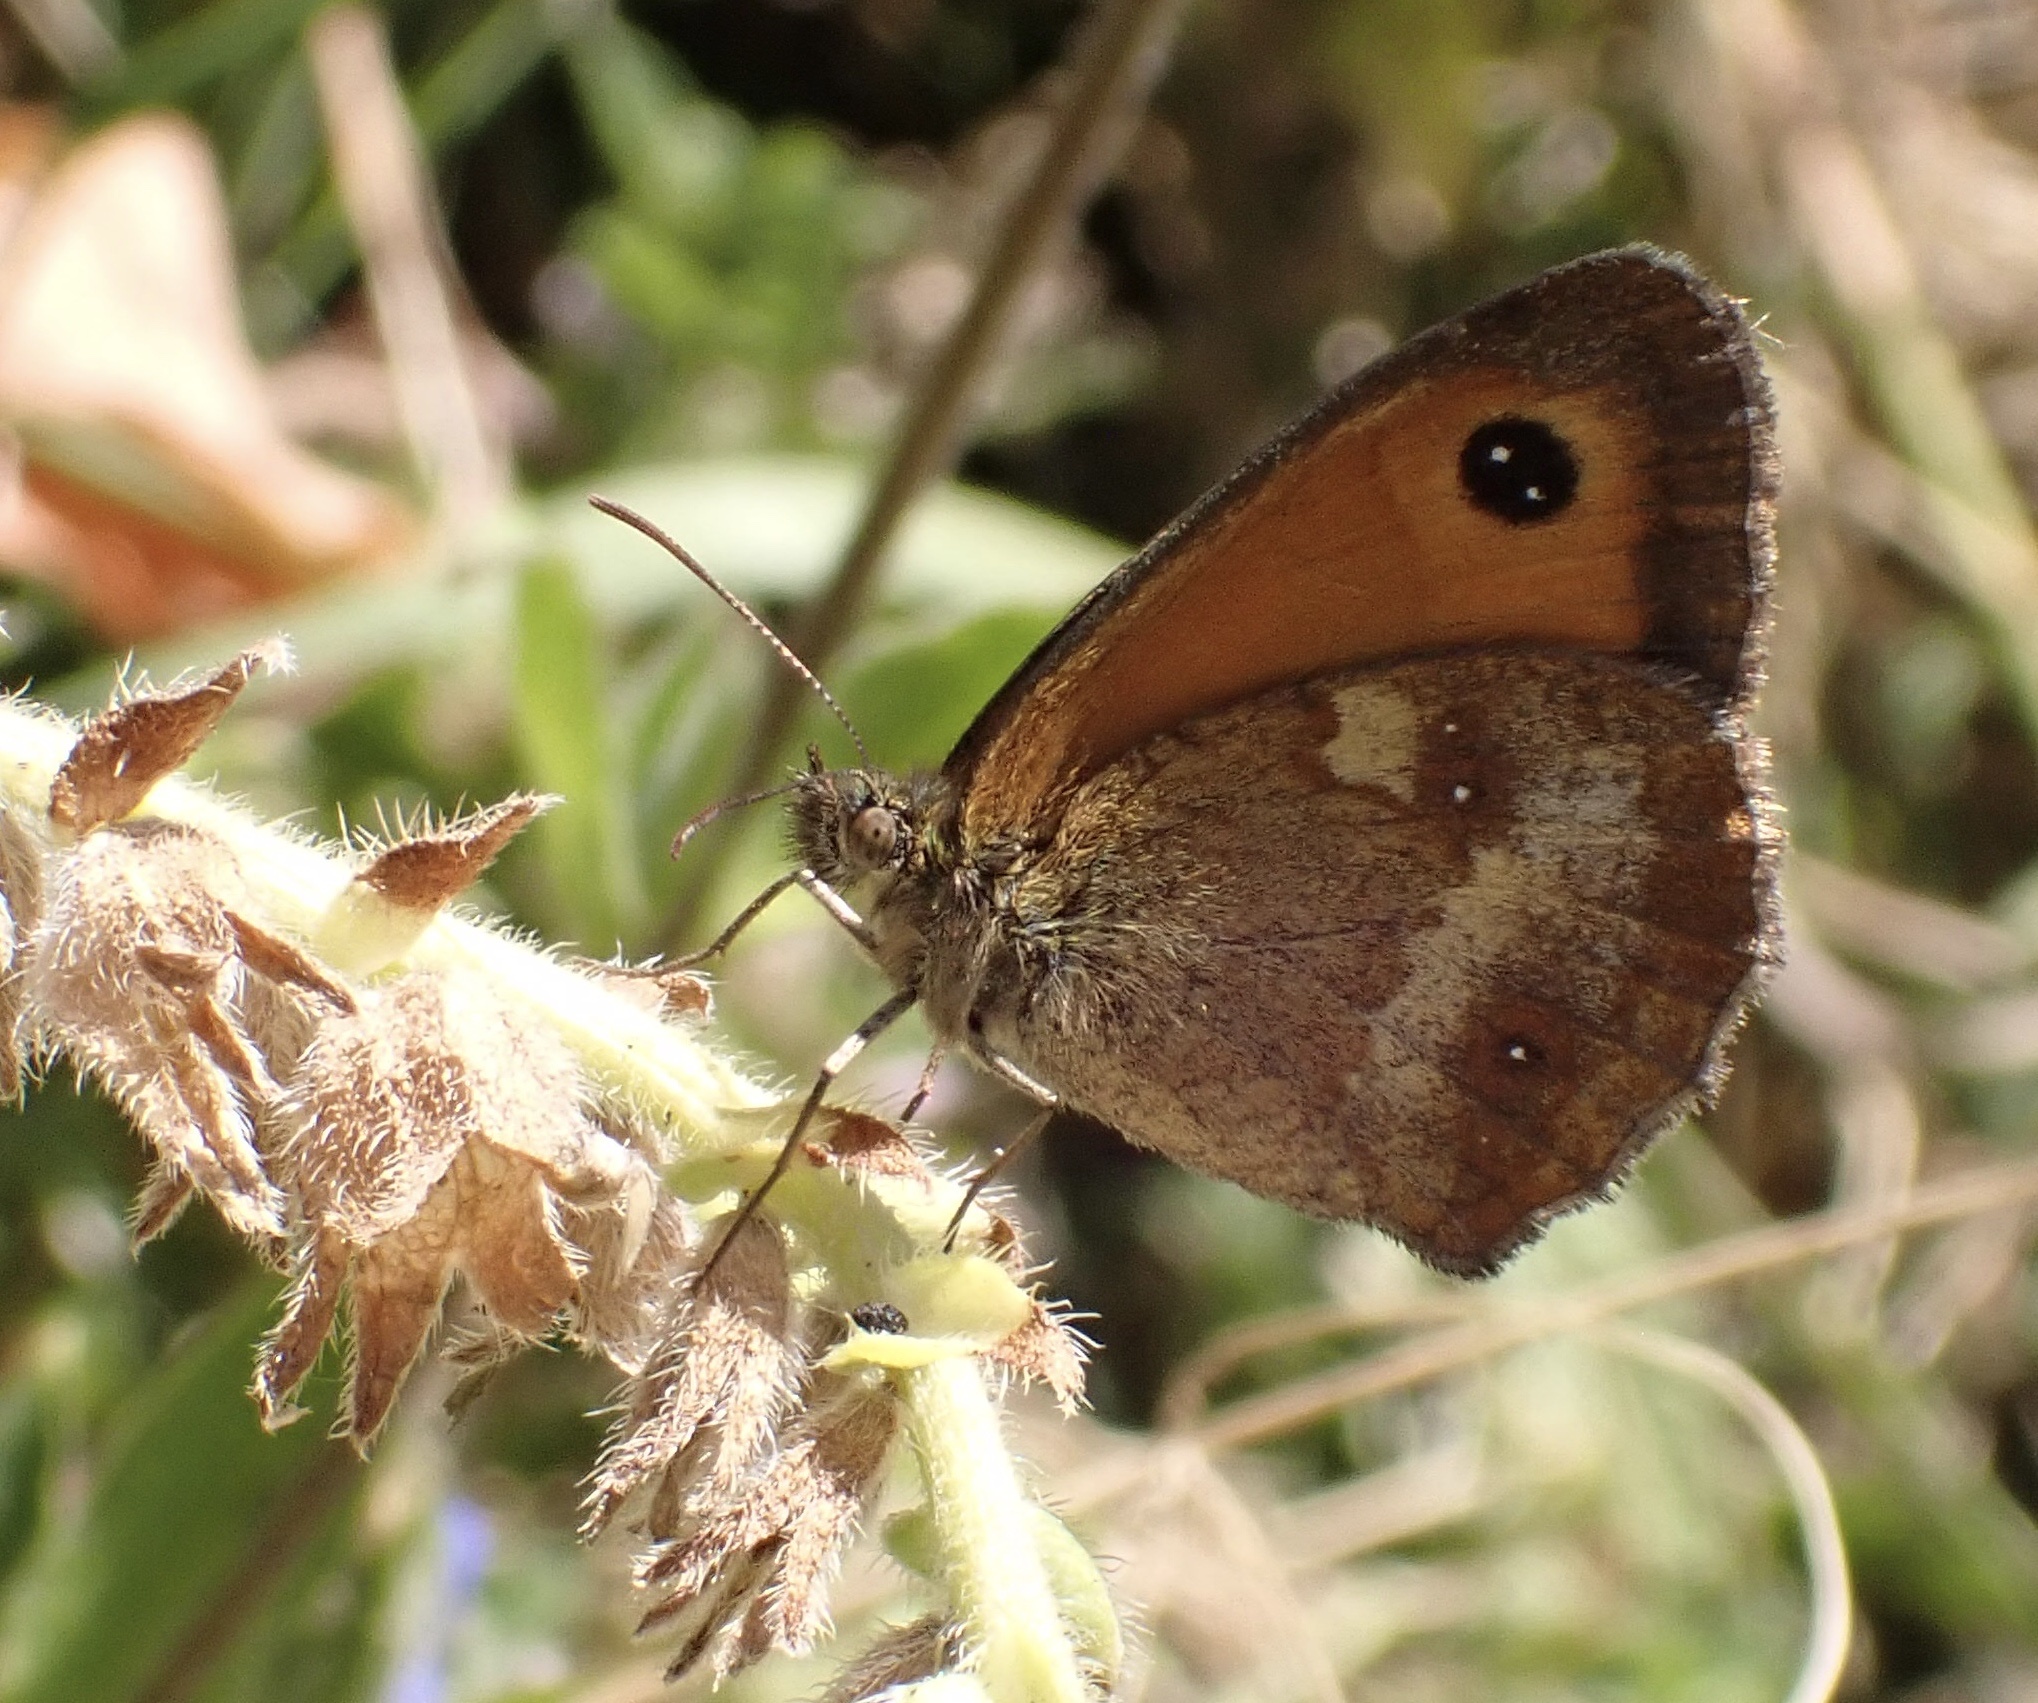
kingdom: Animalia
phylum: Arthropoda
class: Insecta
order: Lepidoptera
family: Nymphalidae
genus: Pyronia
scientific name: Pyronia tithonus
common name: Gatekeeper
